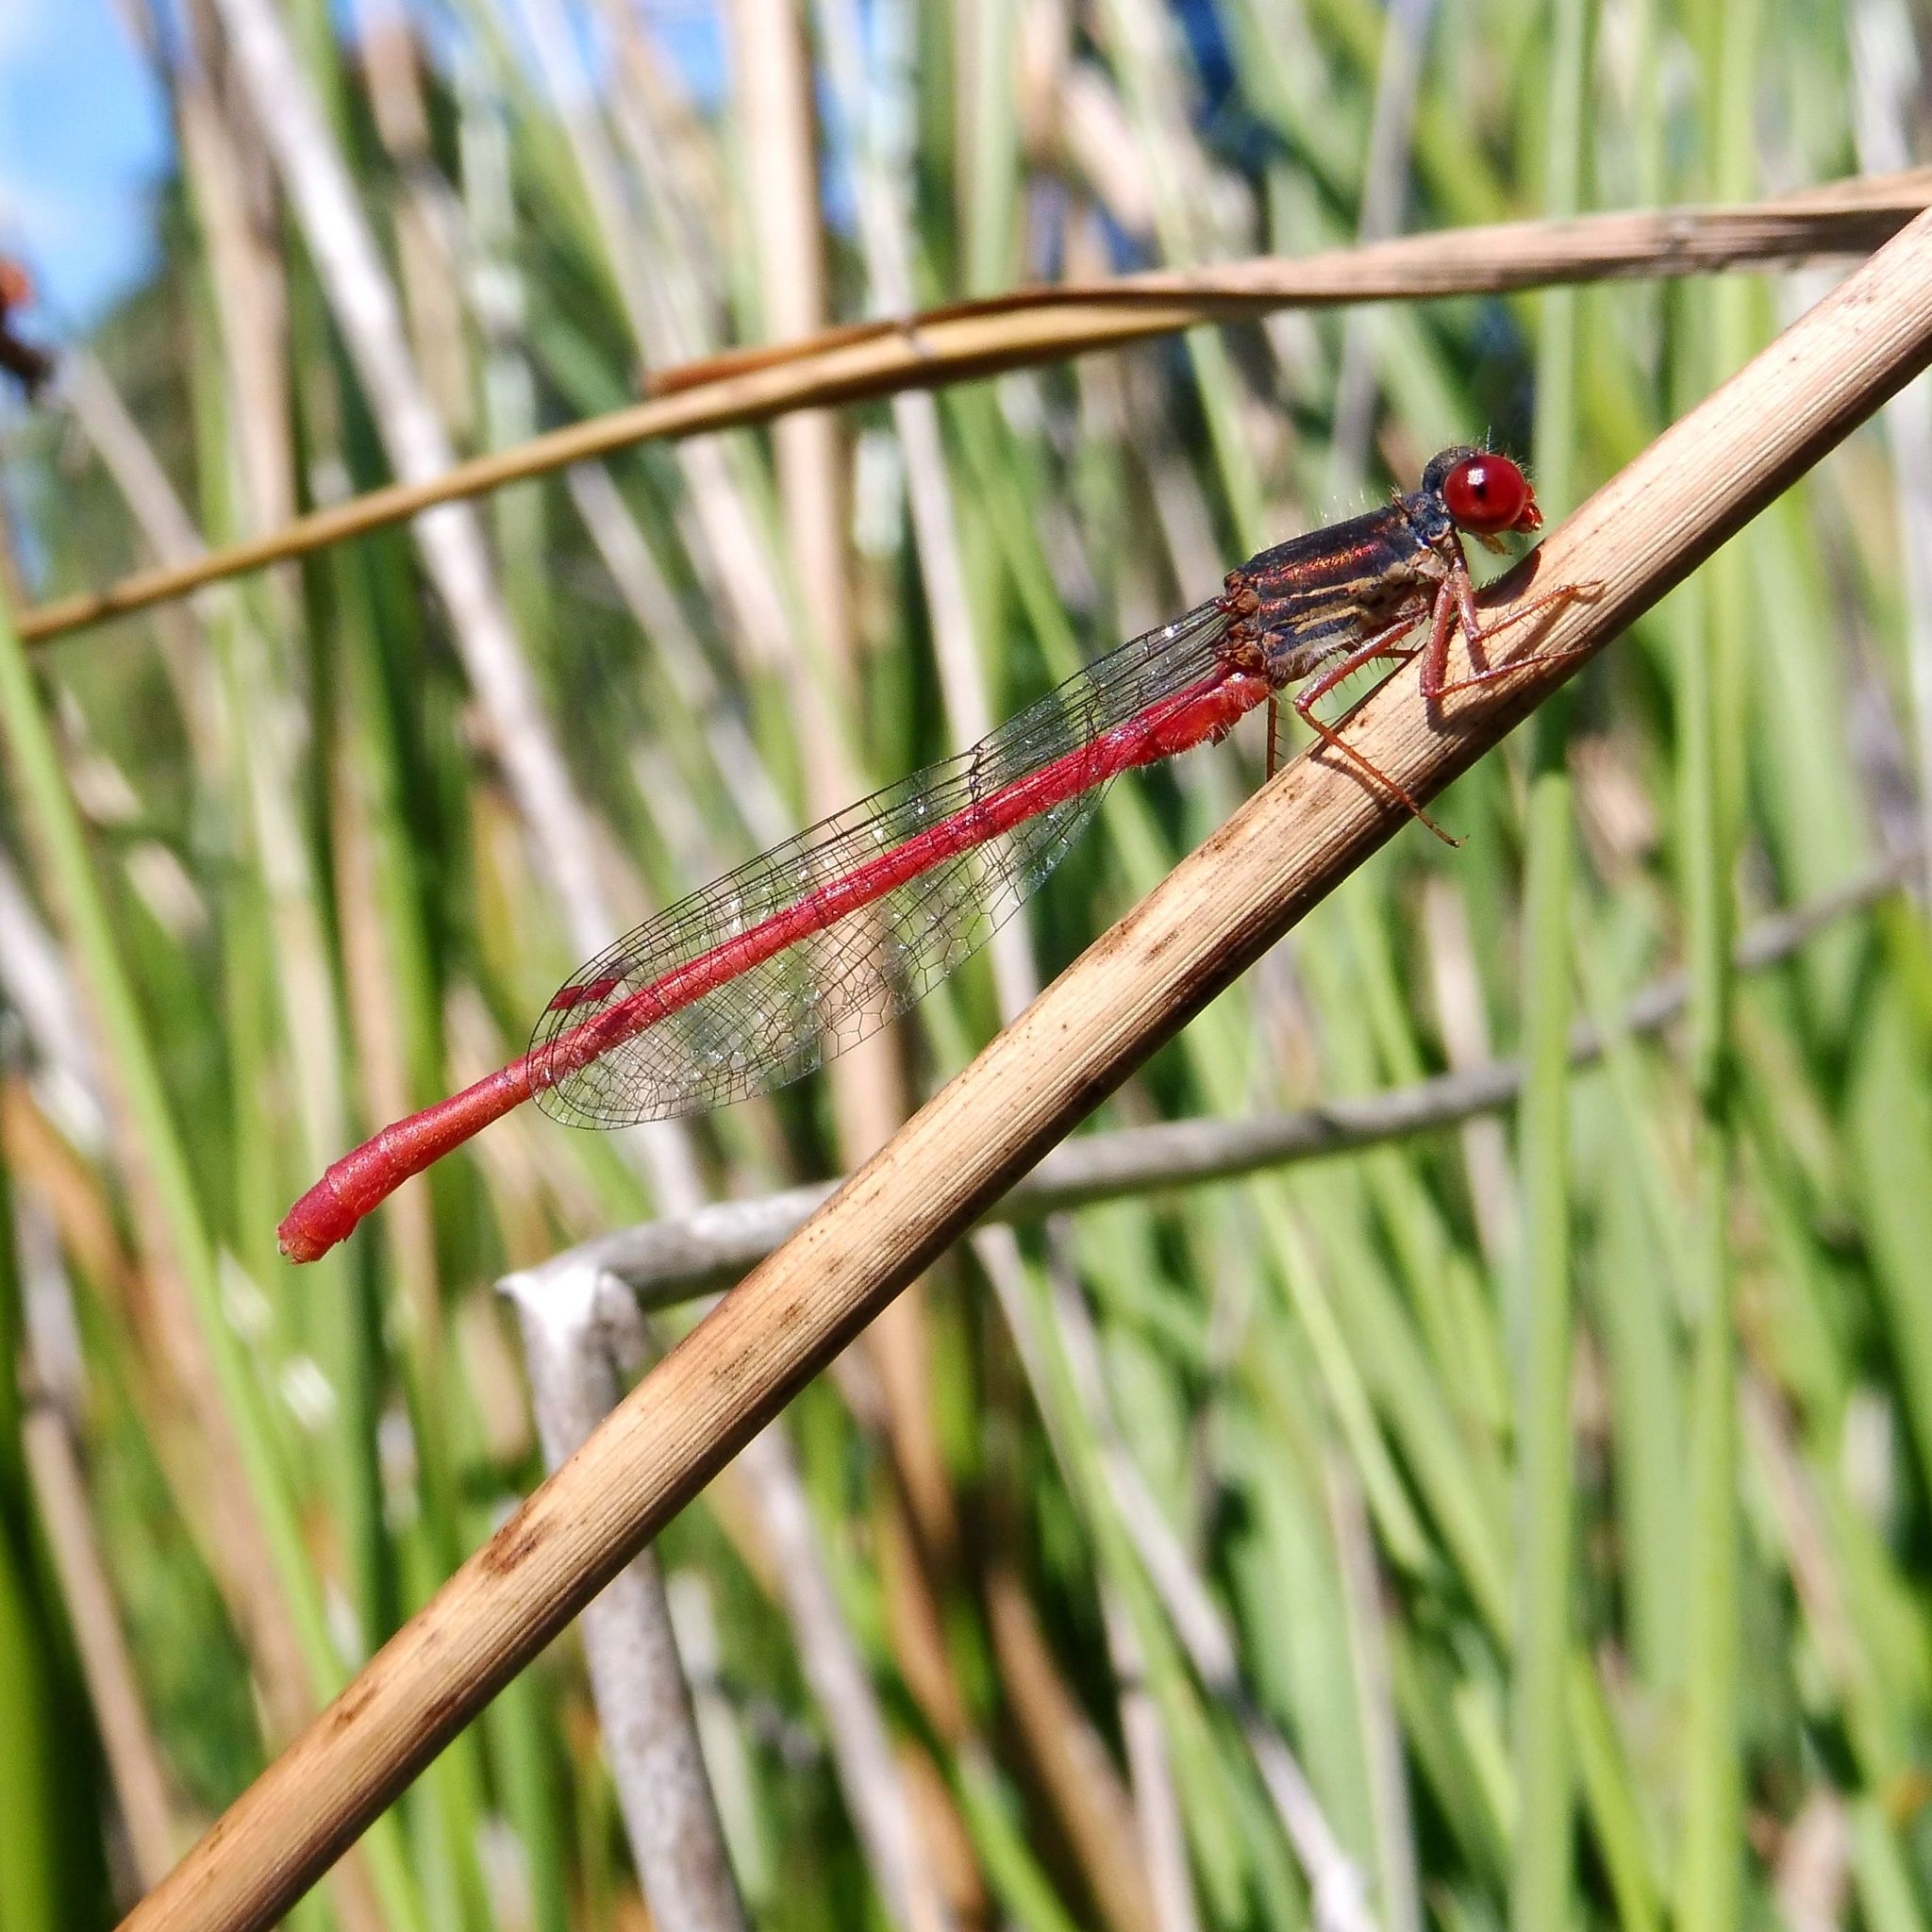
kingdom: Animalia
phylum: Arthropoda
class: Insecta
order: Odonata
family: Coenagrionidae
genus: Ceriagrion
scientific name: Ceriagrion tenellum
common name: Small red damselfly
